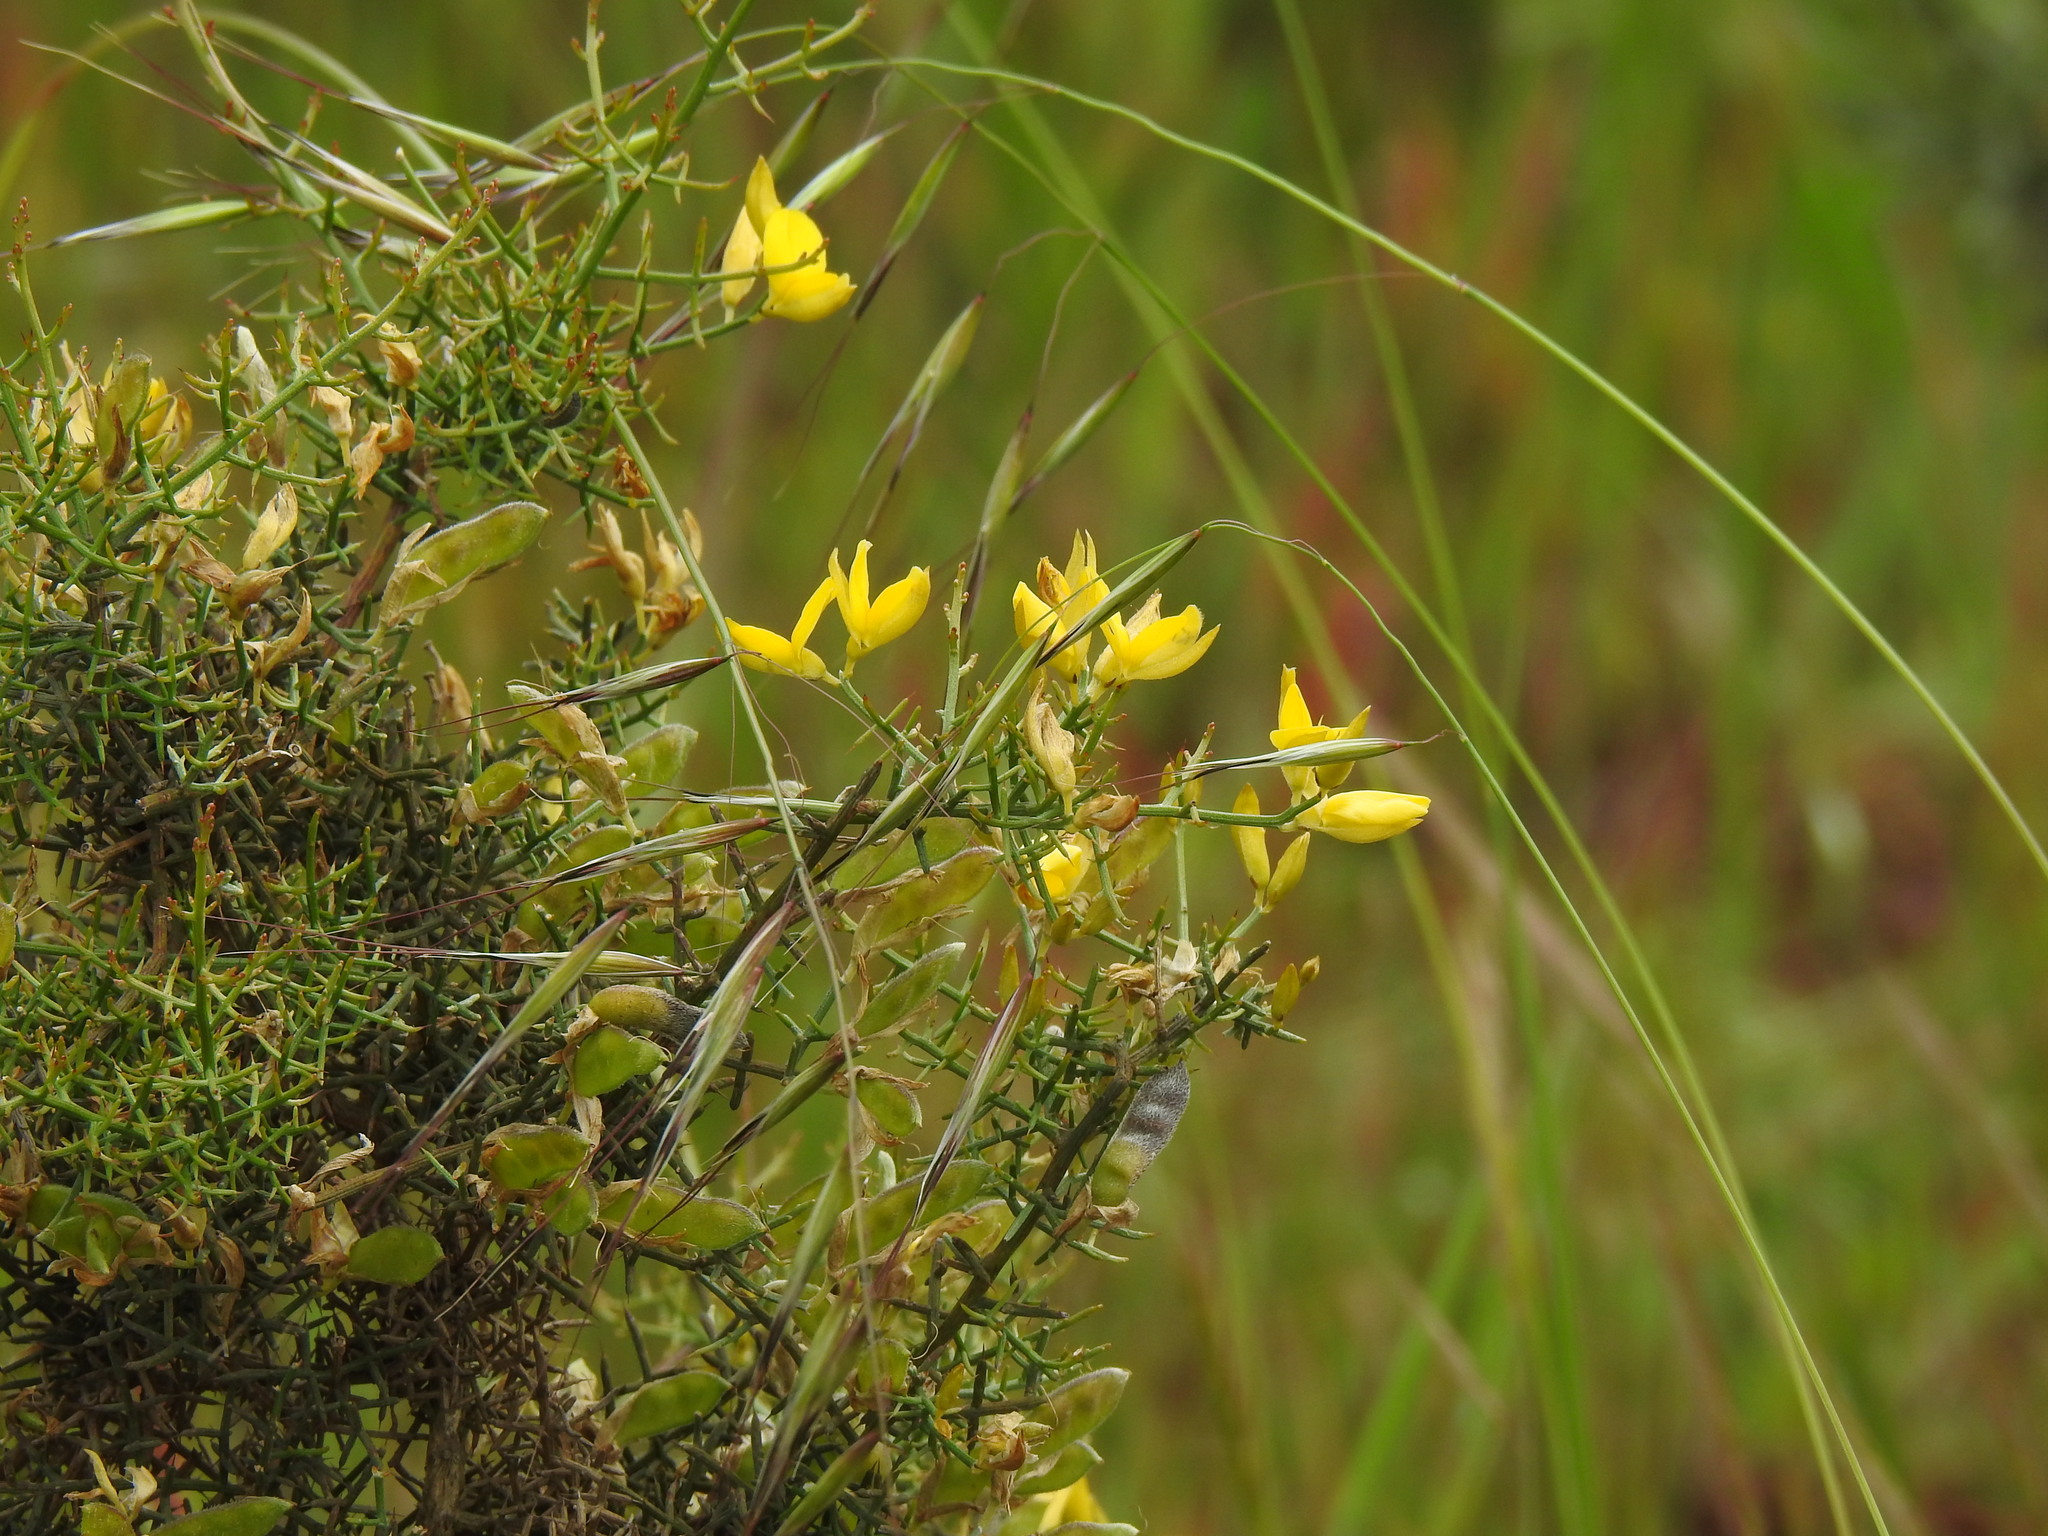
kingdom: Plantae
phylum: Tracheophyta
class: Magnoliopsida
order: Fabales
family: Fabaceae
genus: Stauracanthus
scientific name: Stauracanthus genistoides
